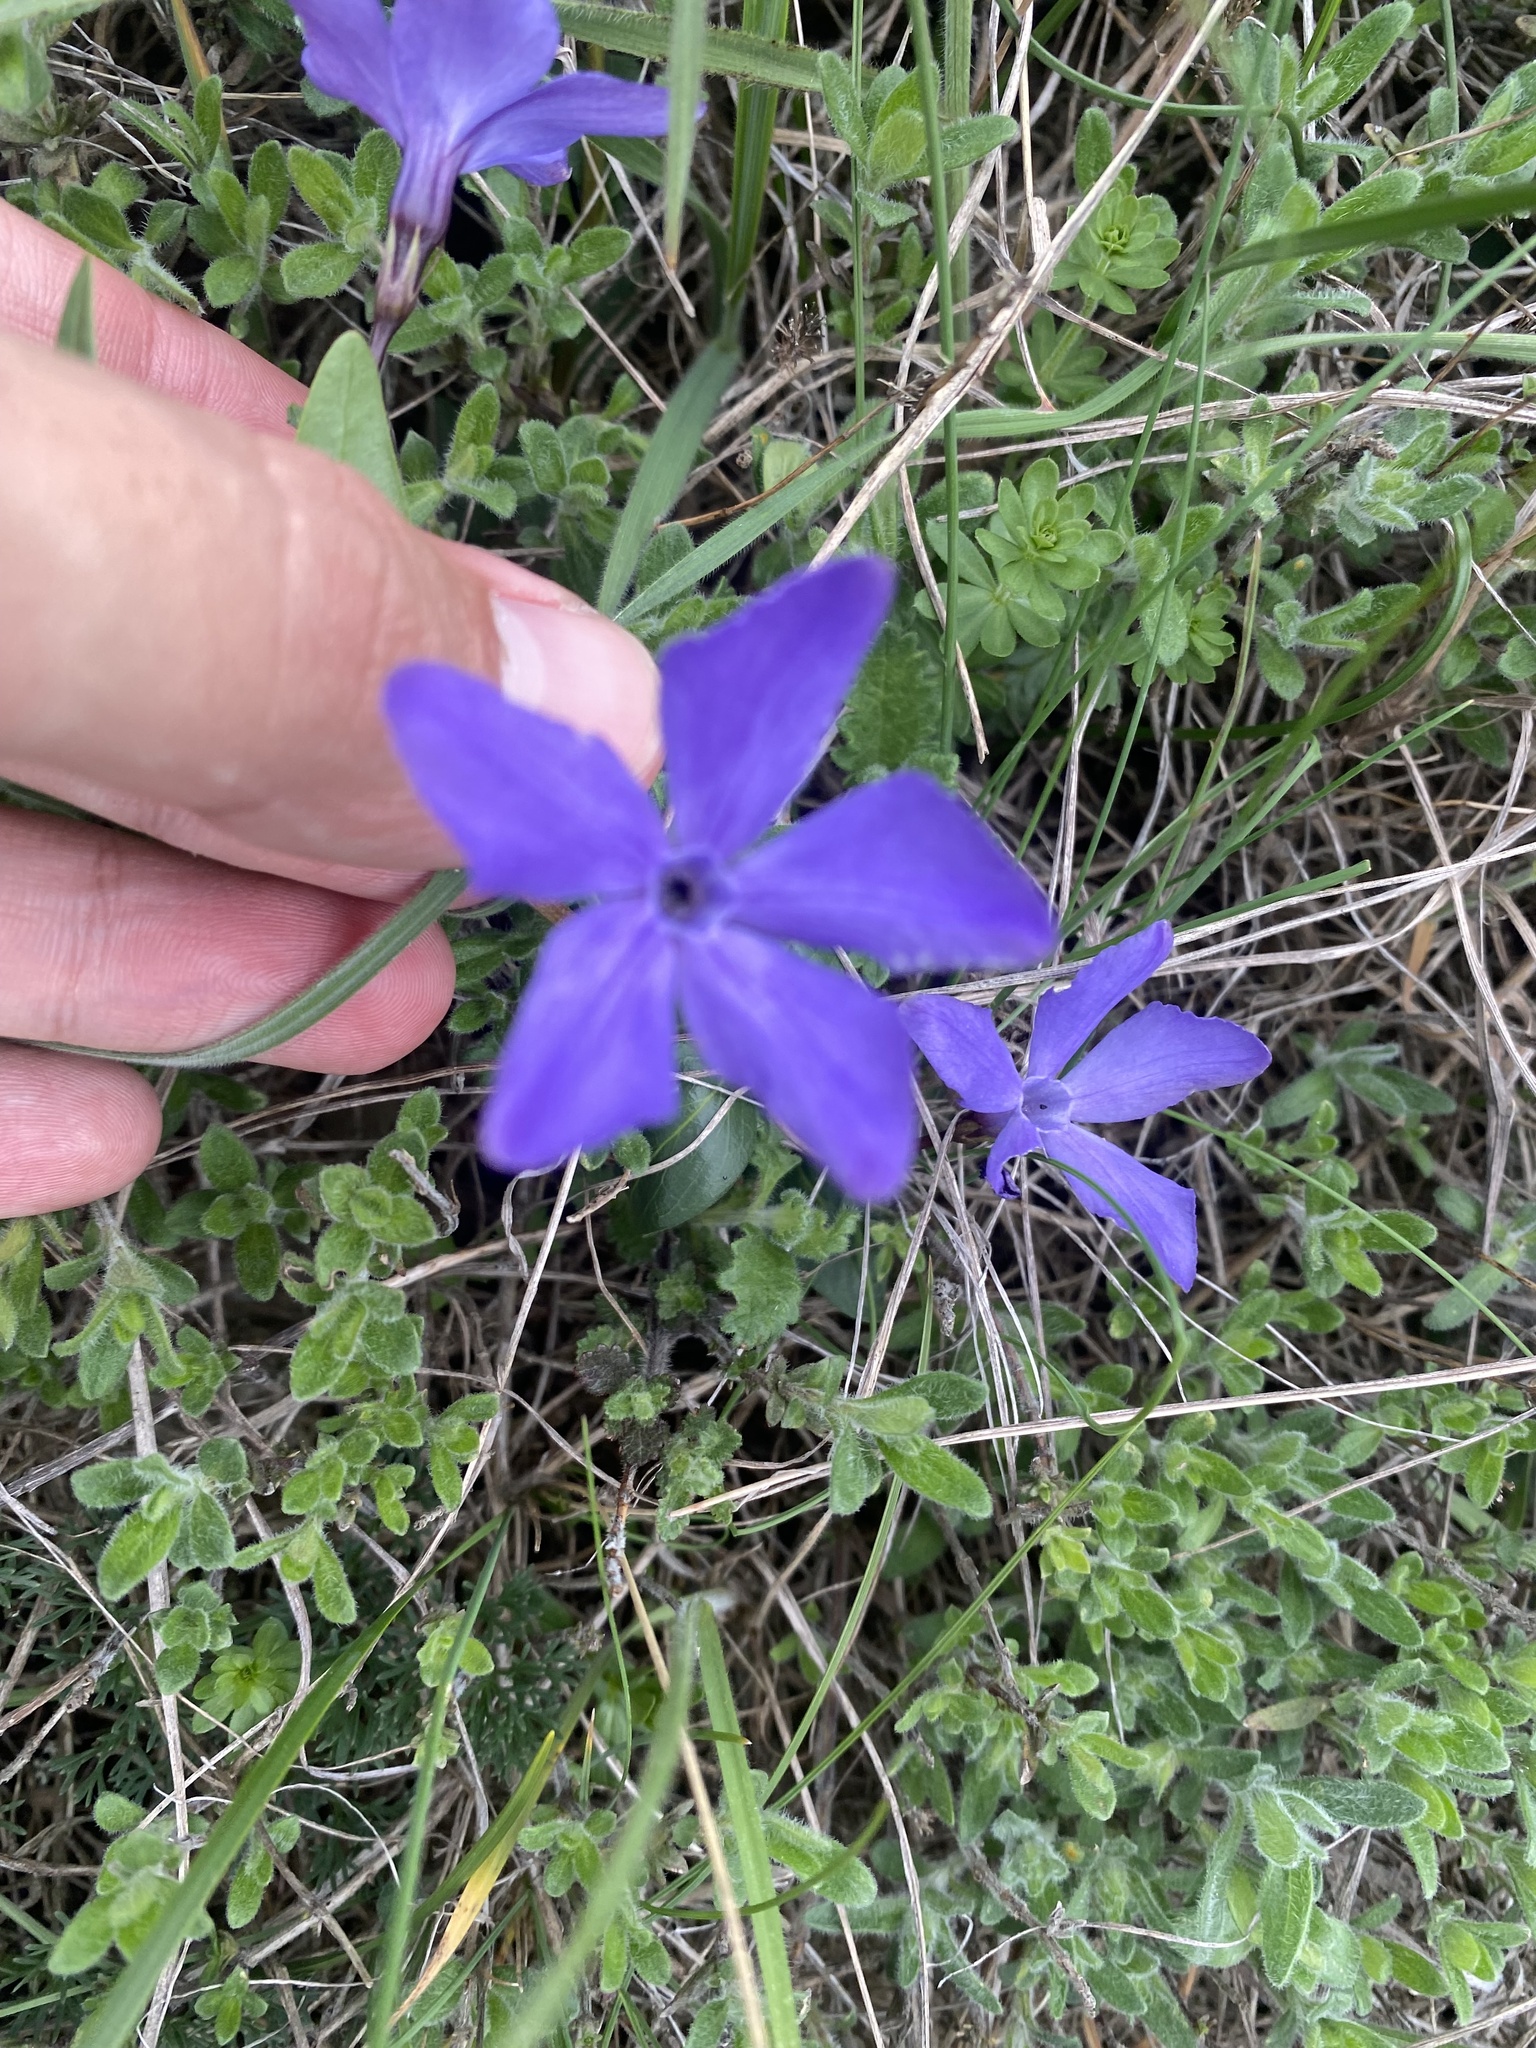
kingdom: Plantae
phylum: Tracheophyta
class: Magnoliopsida
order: Gentianales
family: Apocynaceae
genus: Vinca
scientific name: Vinca herbacea
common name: Herbaceous periwinkle
